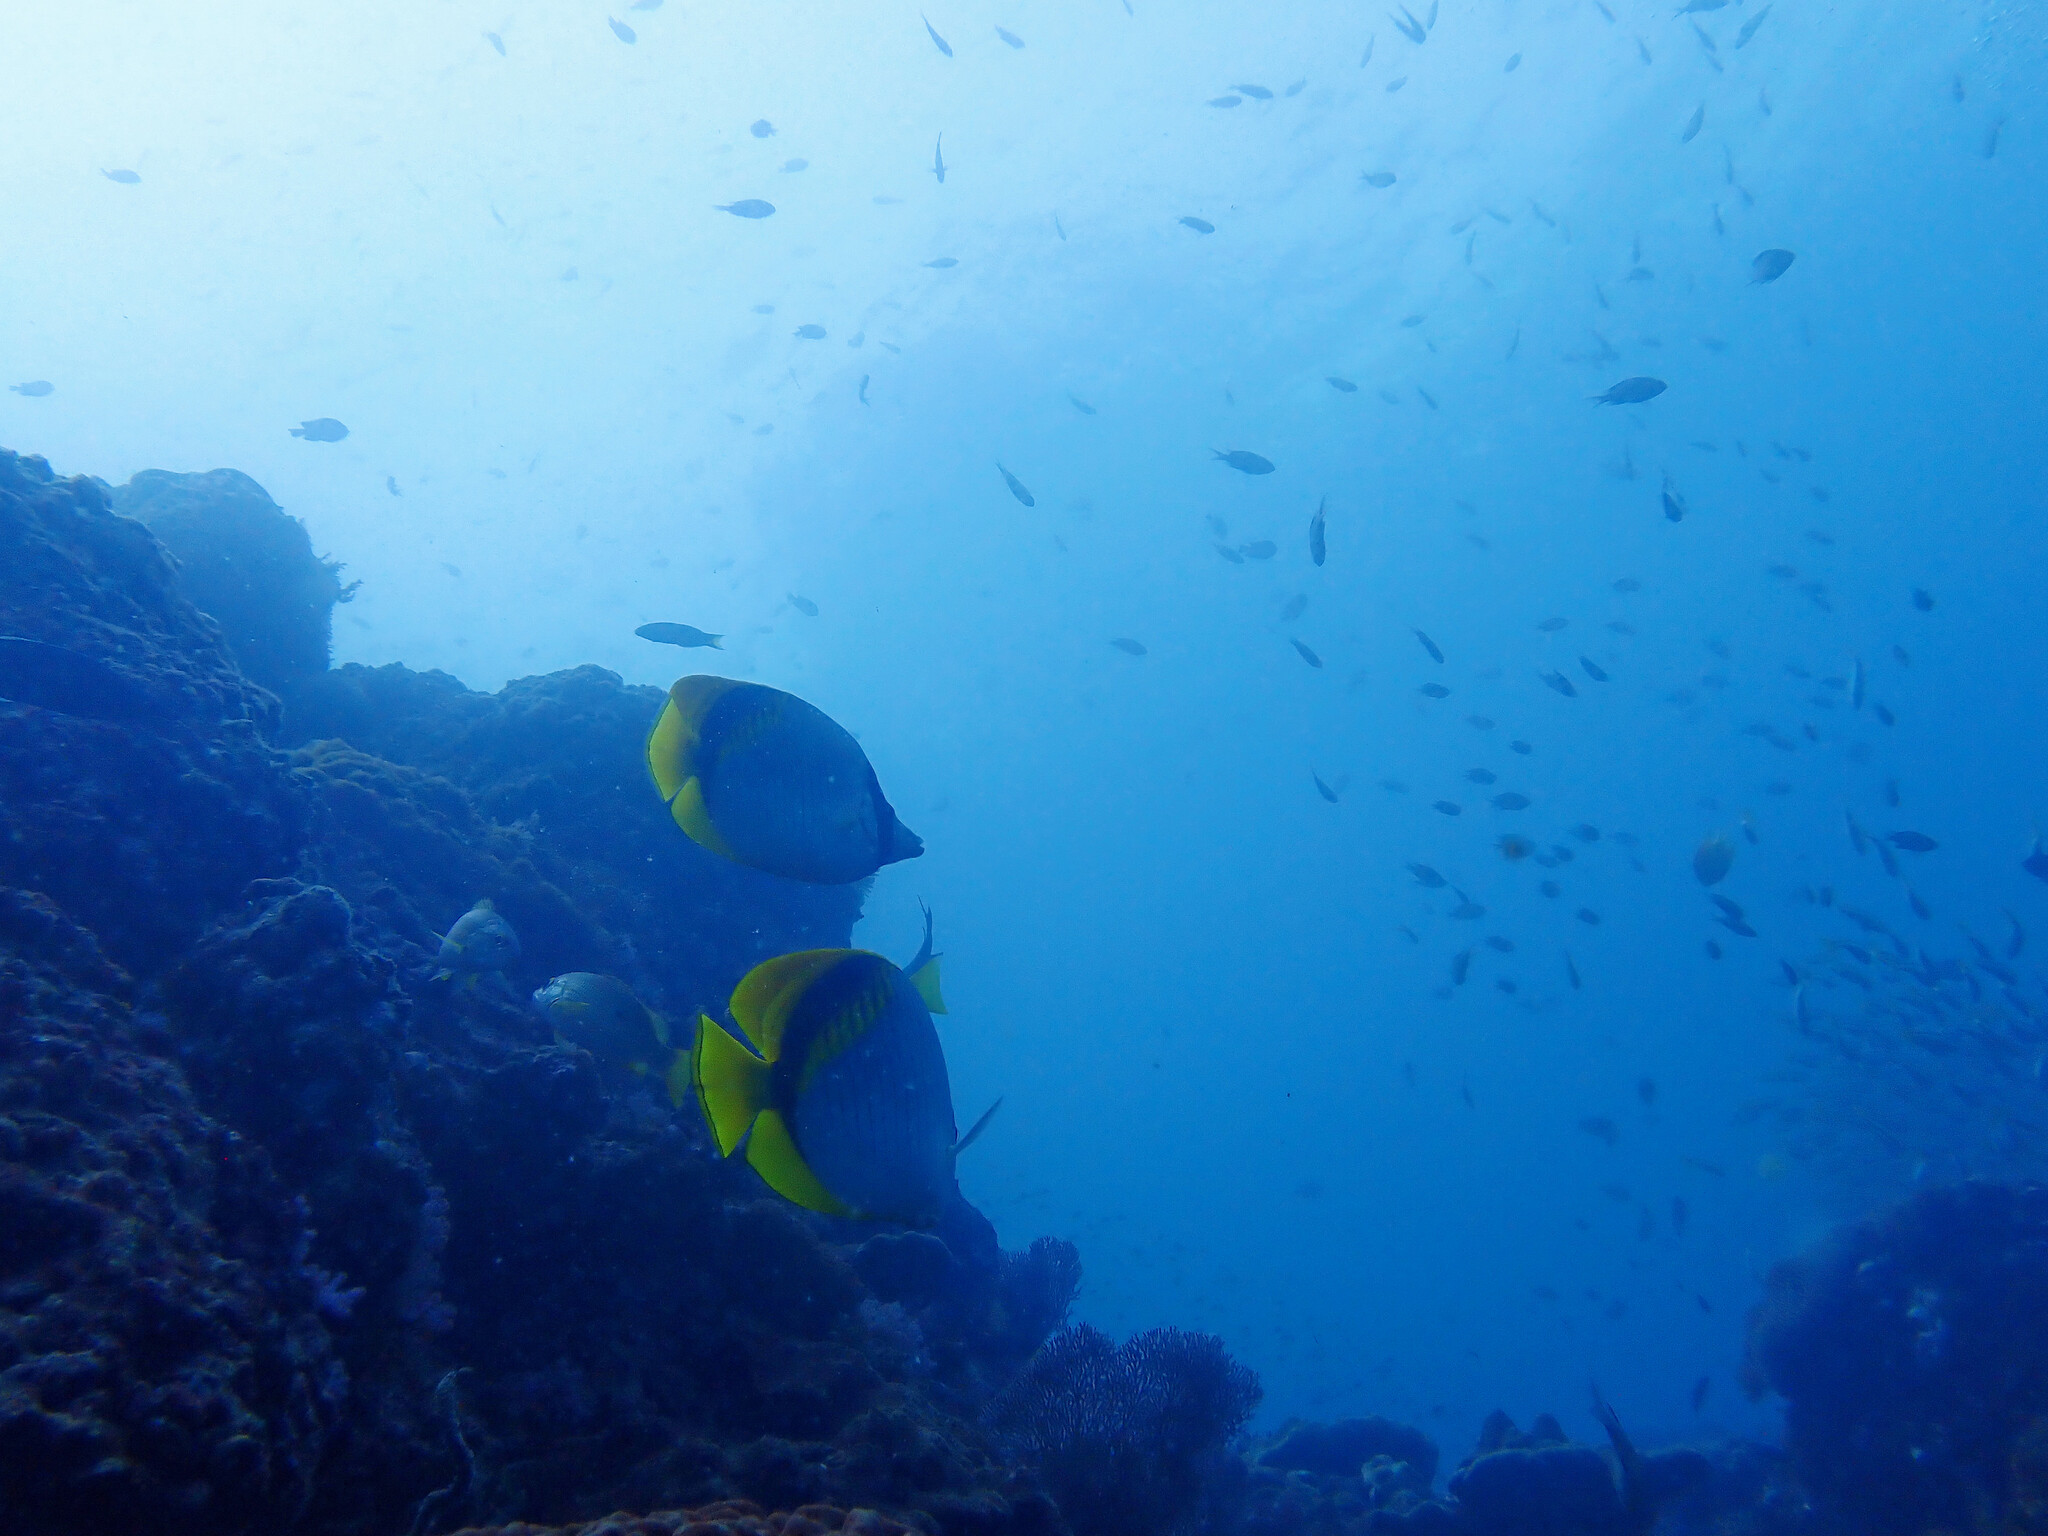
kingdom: Animalia
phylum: Chordata
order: Perciformes
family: Chaetodontidae
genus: Chaetodon
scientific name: Chaetodon lineolatus
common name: Lined butterflyfish
